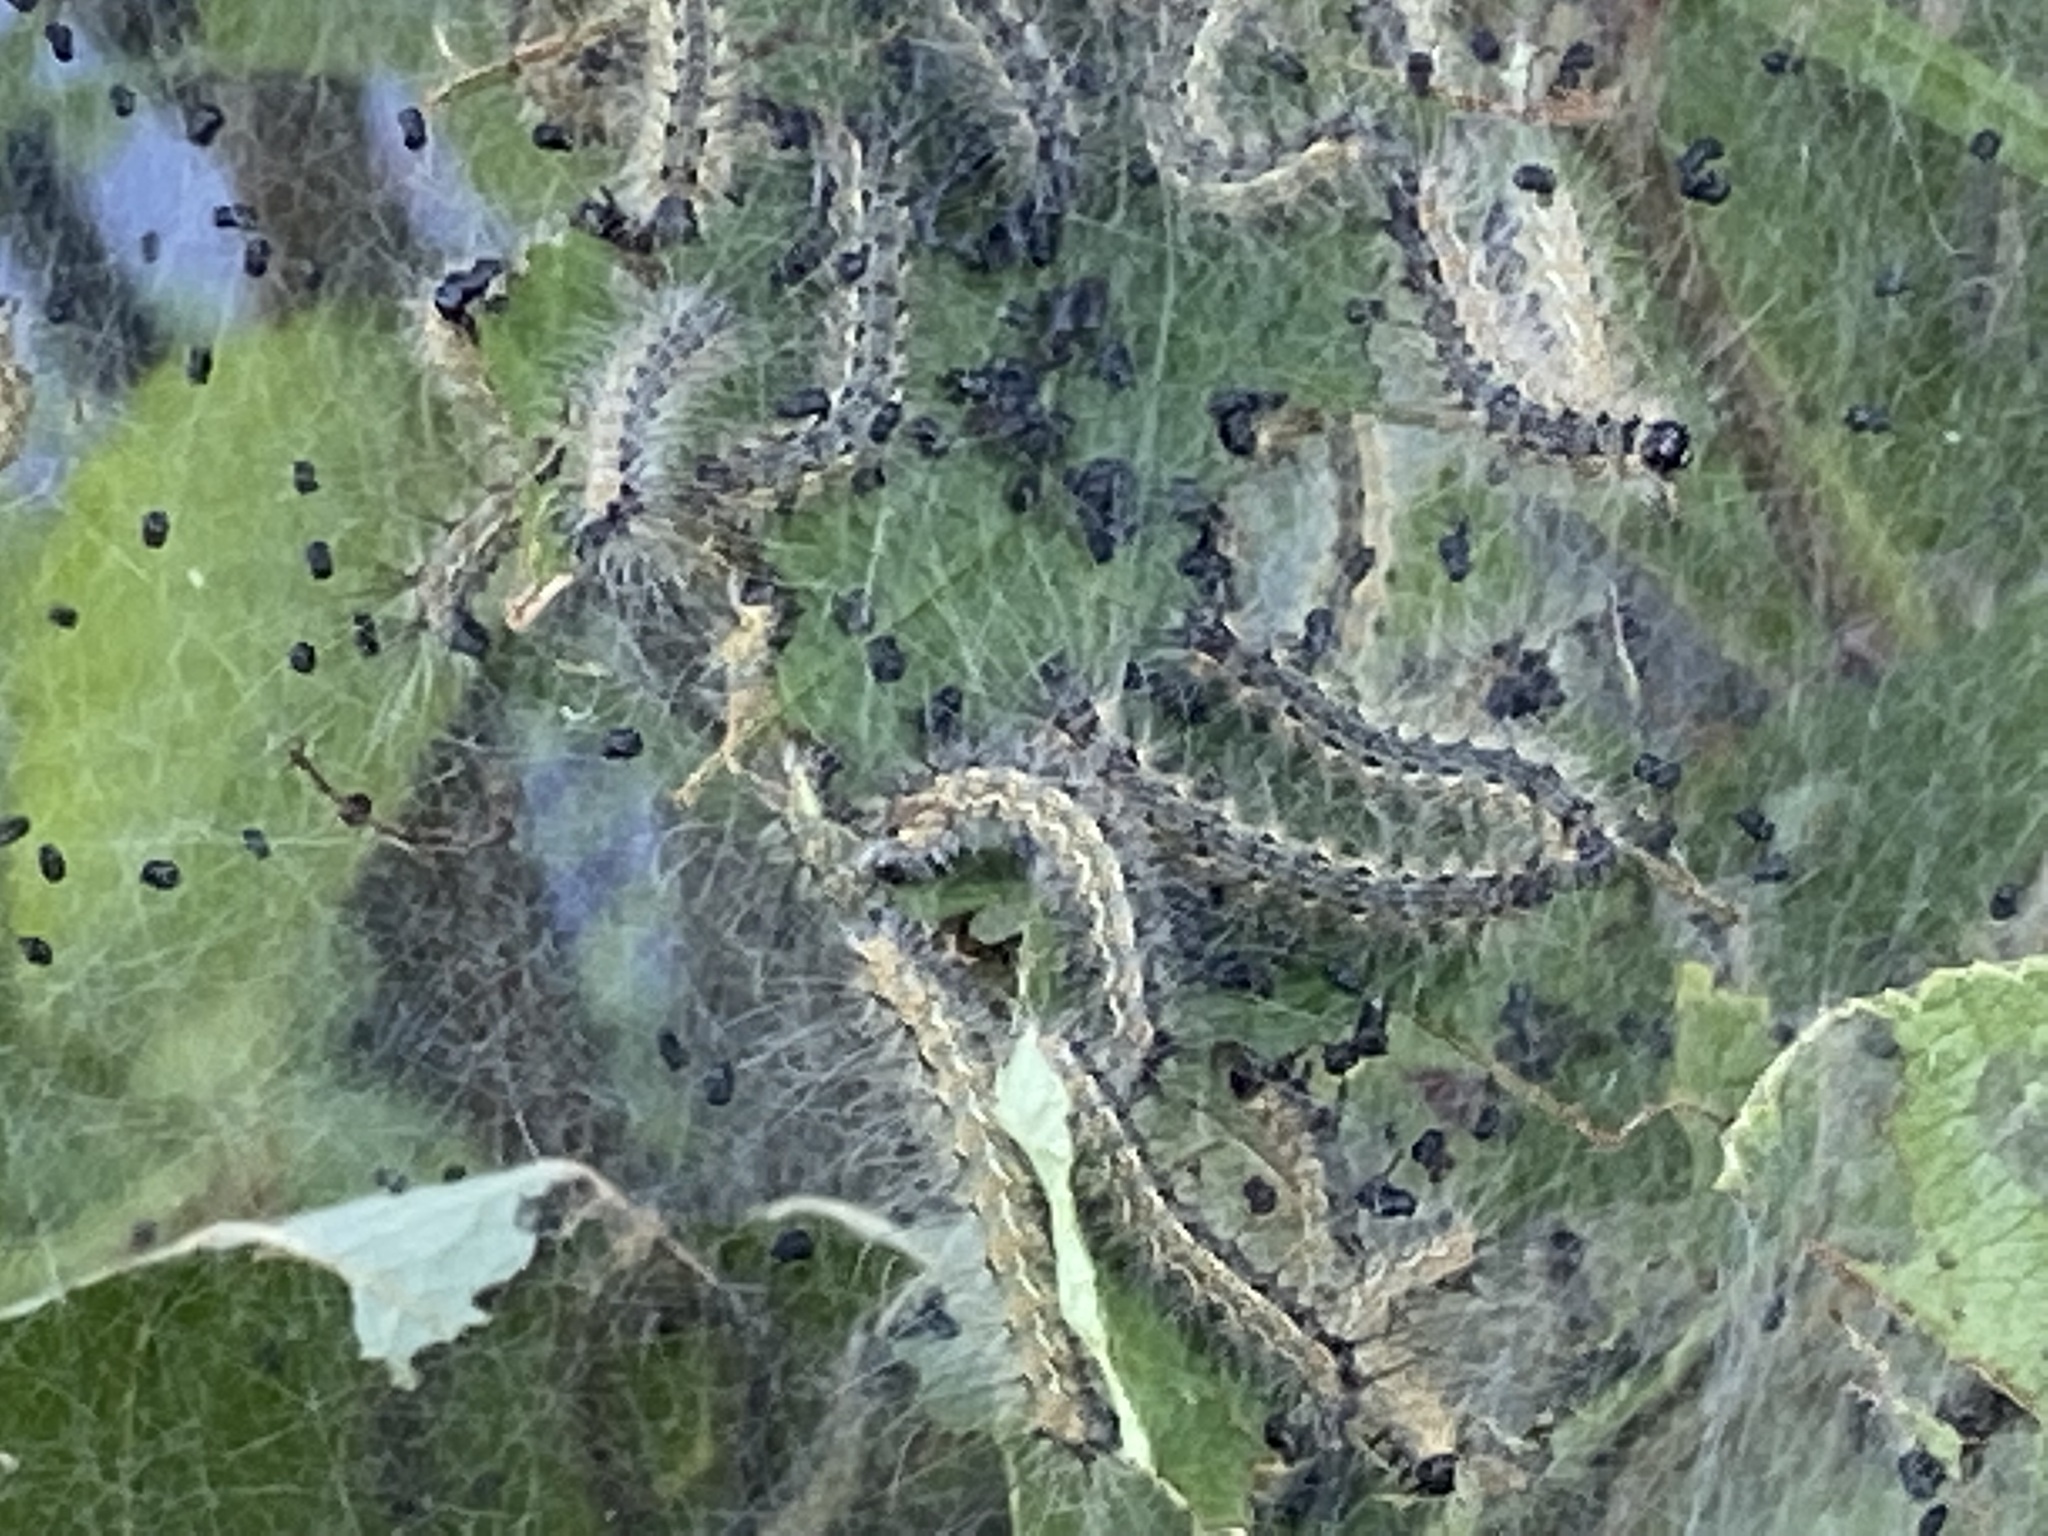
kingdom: Animalia
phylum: Arthropoda
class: Insecta
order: Lepidoptera
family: Erebidae
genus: Hyphantria
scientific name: Hyphantria cunea
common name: American white moth
